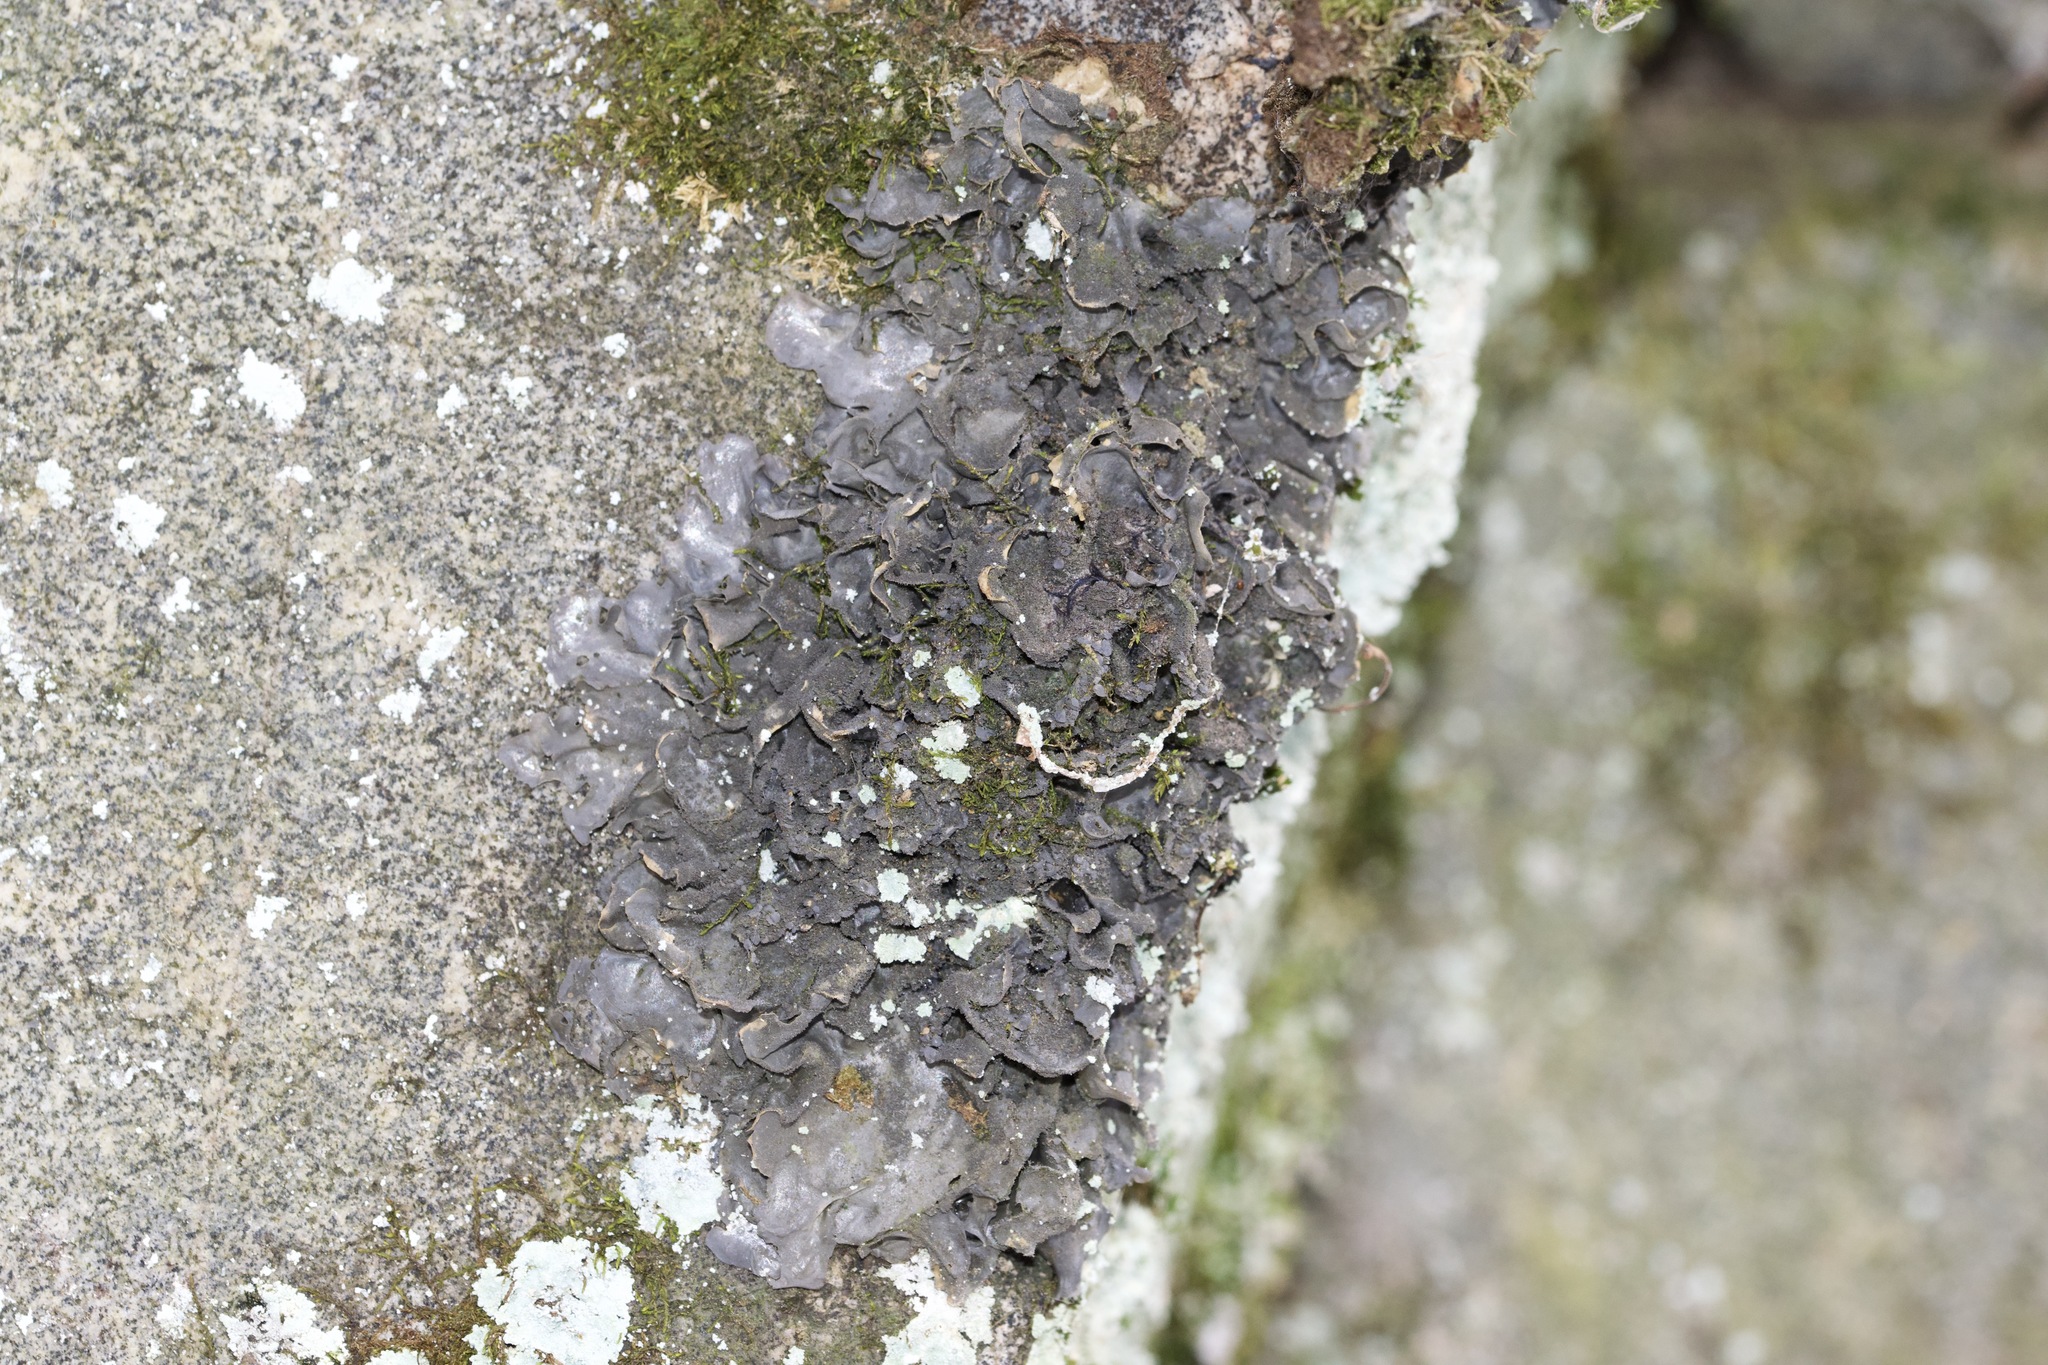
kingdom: Fungi
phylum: Ascomycota
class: Lecanoromycetes
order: Peltigerales
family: Collemataceae
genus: Leptogium
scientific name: Leptogium cyanescens
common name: Blue jellyskin
